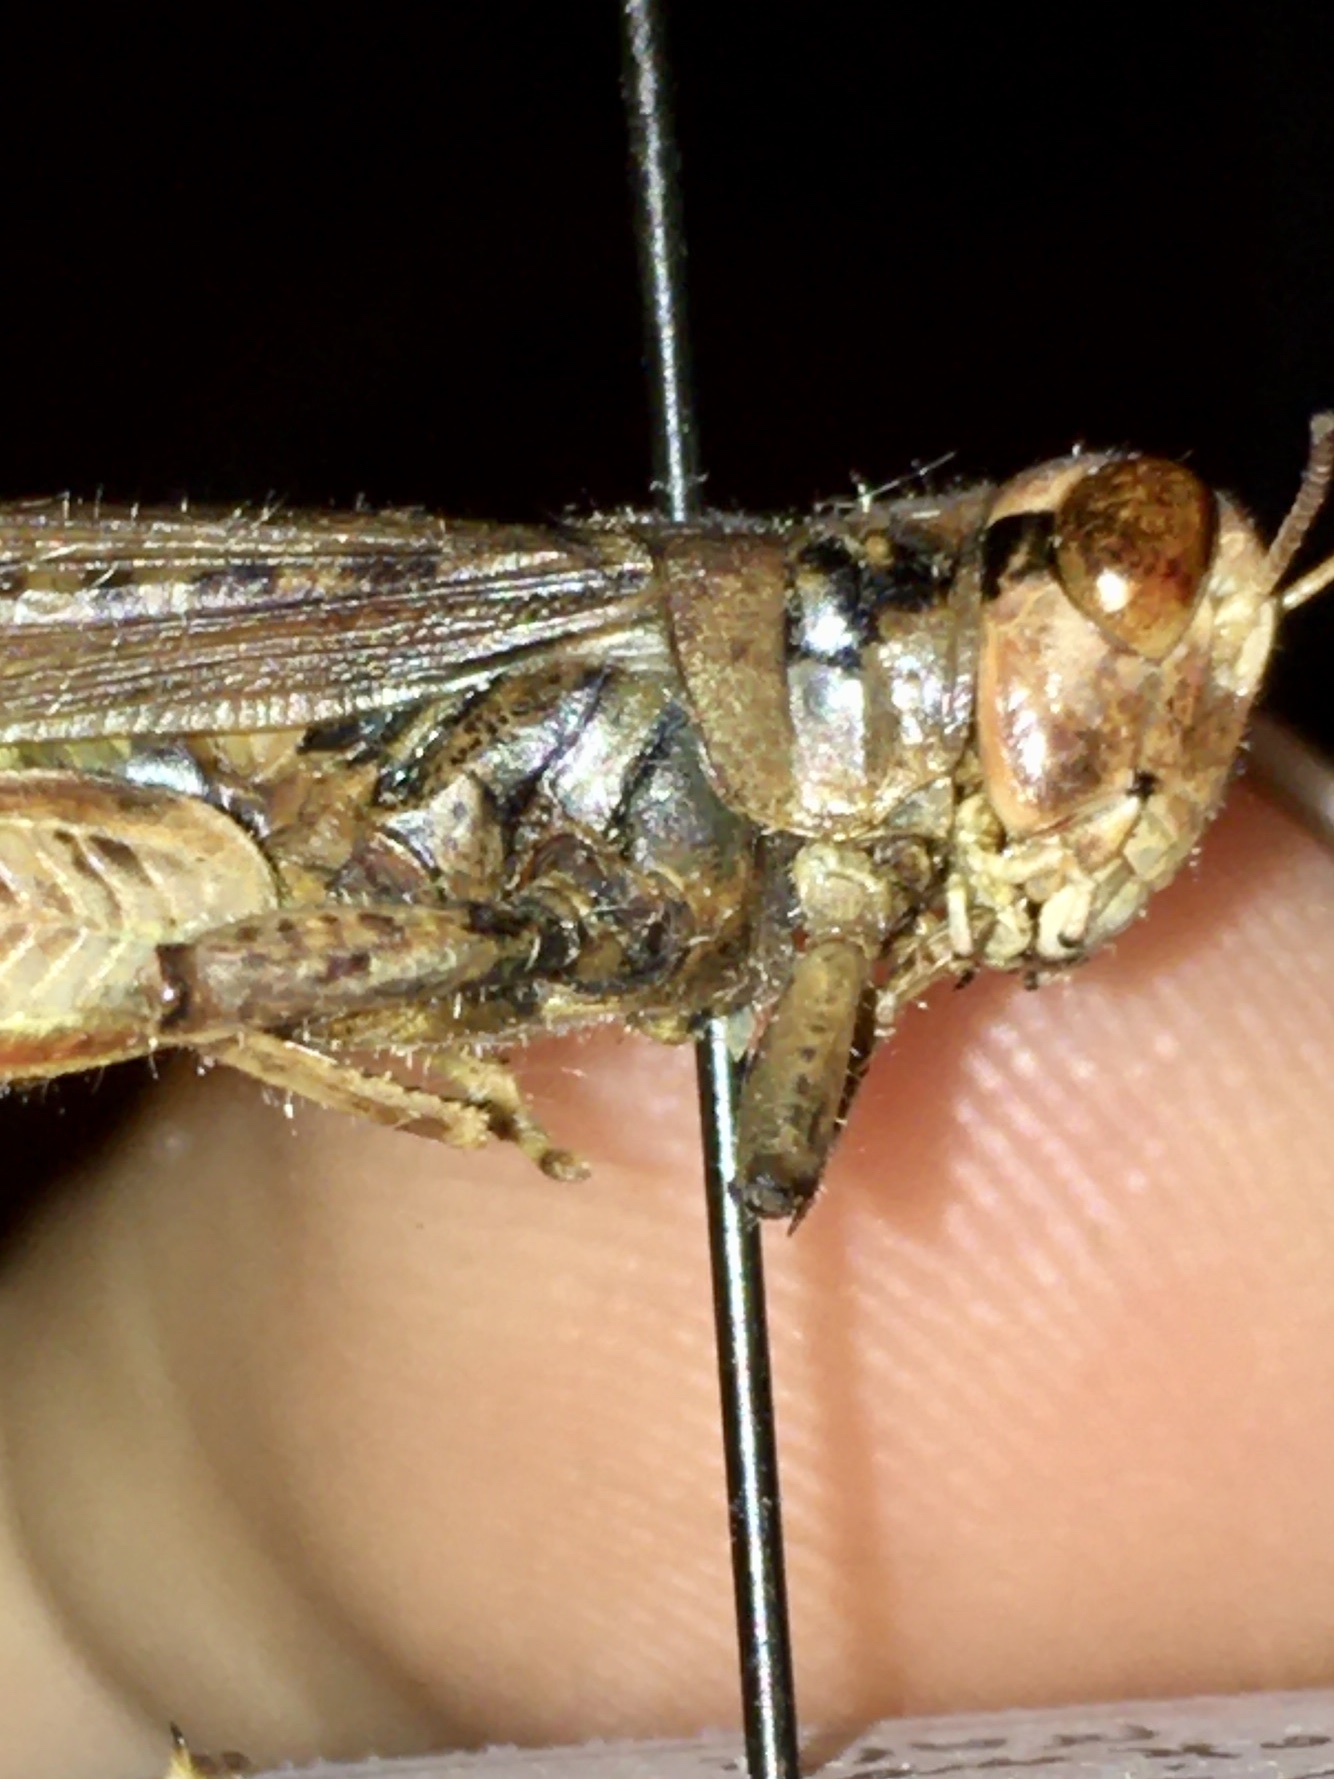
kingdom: Animalia
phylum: Arthropoda
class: Insecta
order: Orthoptera
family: Acrididae
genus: Melanoplus
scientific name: Melanoplus sanguinipes
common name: Migratory grasshopper
